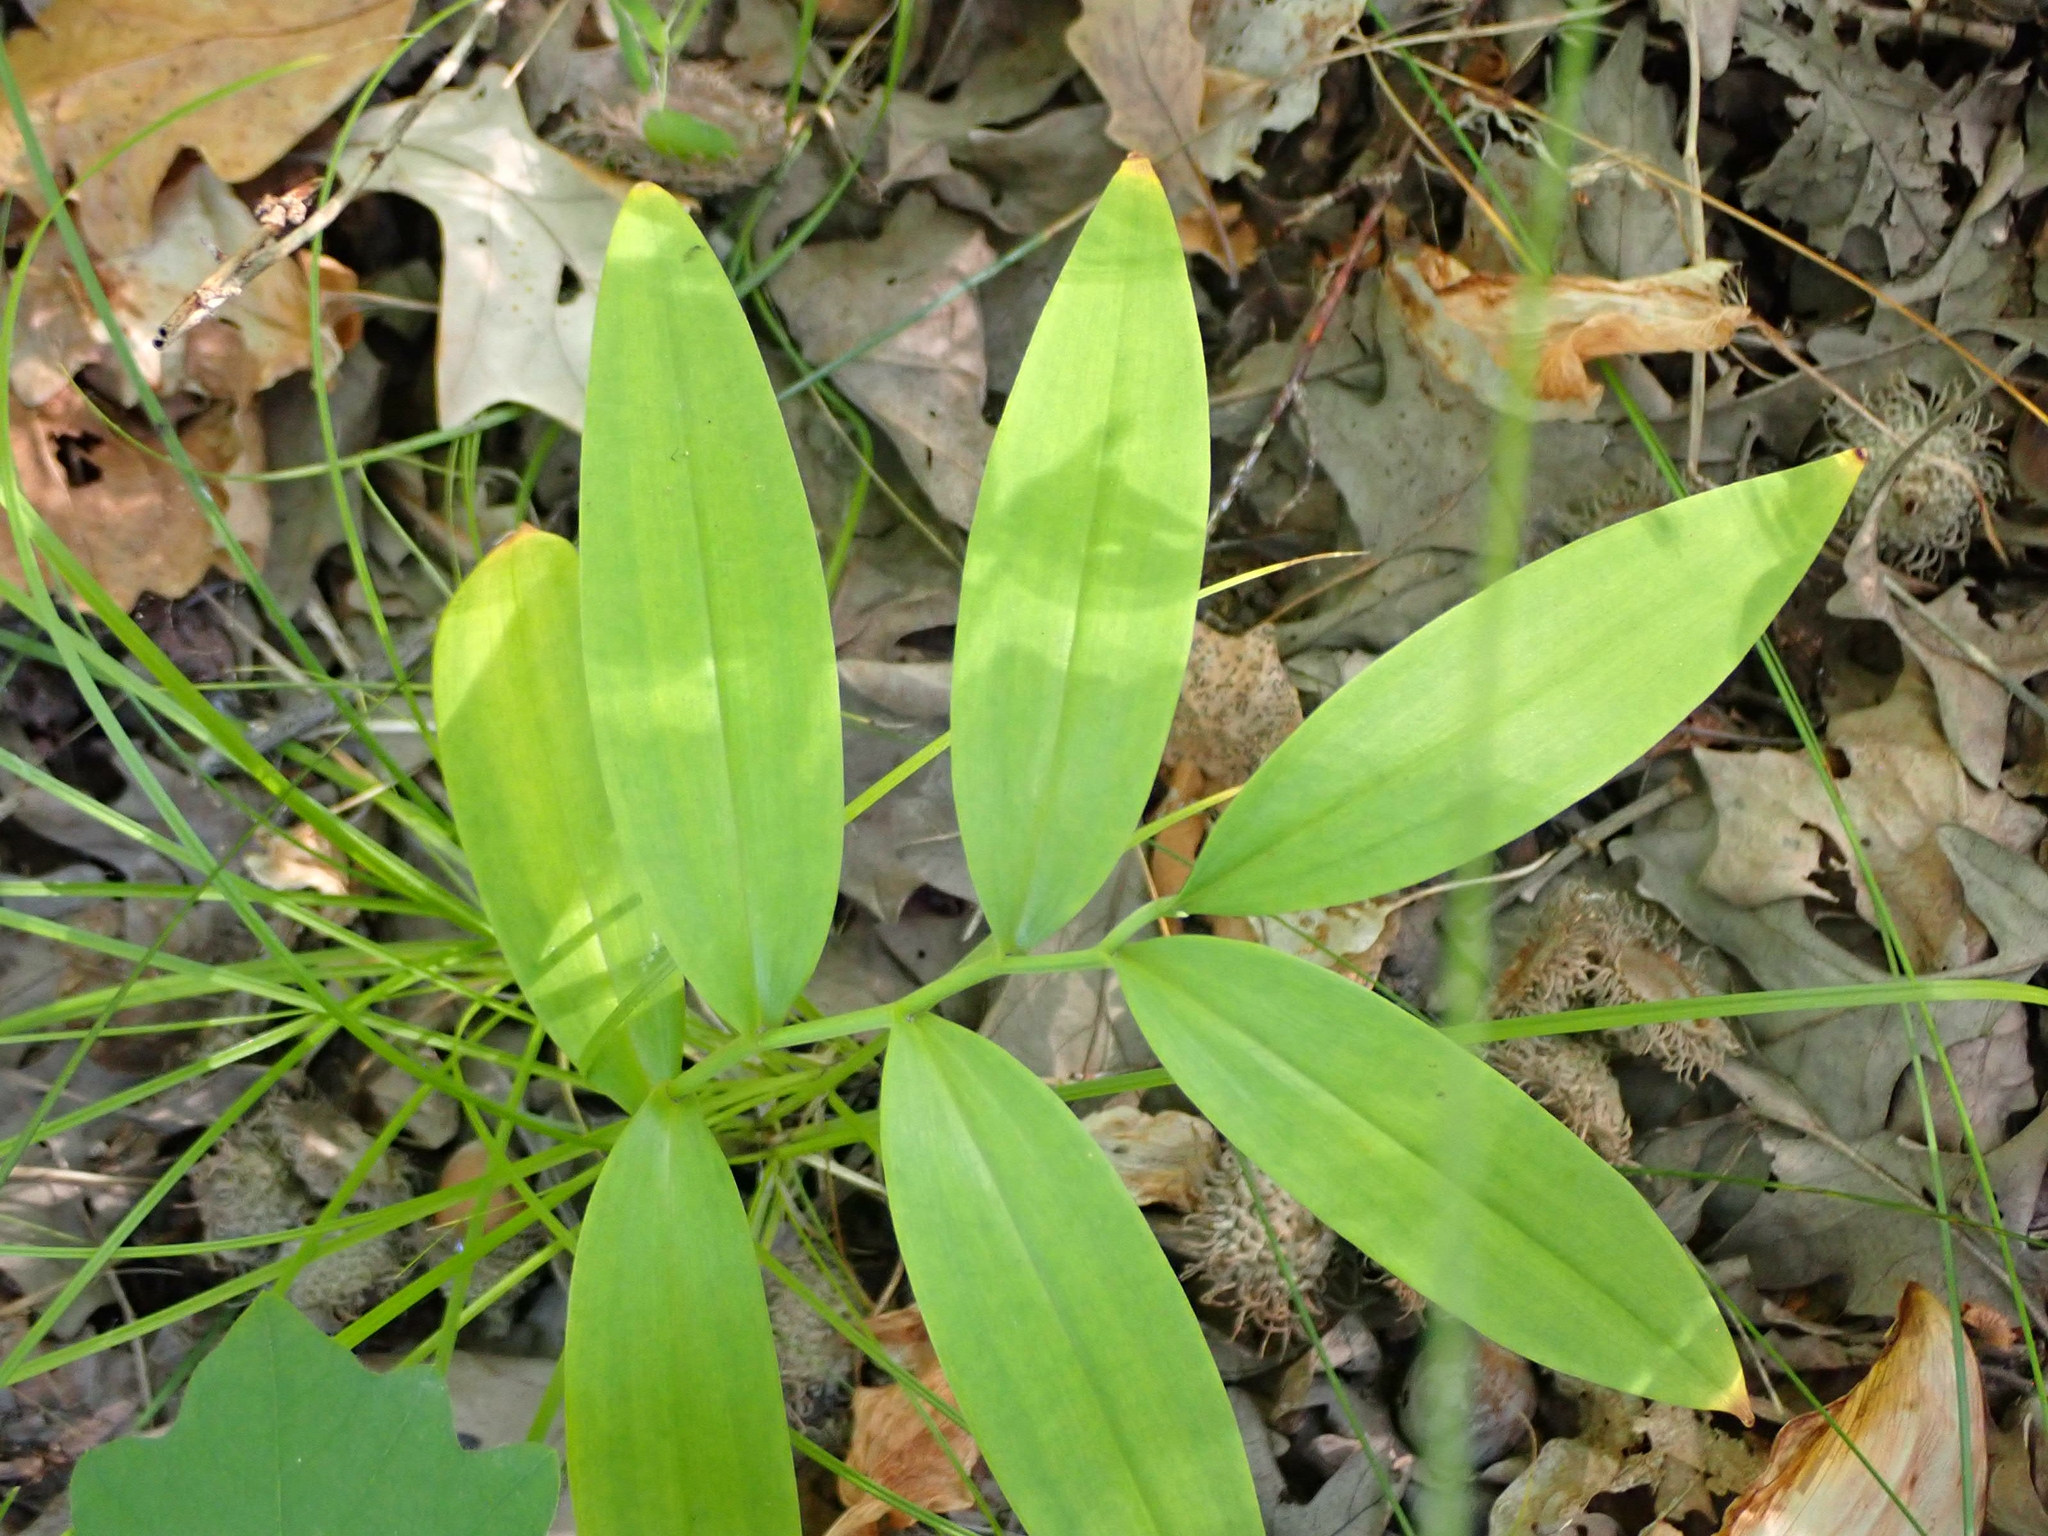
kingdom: Plantae
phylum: Tracheophyta
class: Liliopsida
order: Asparagales
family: Asparagaceae
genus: Maianthemum
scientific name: Maianthemum stellatum
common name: Little false solomon's seal
